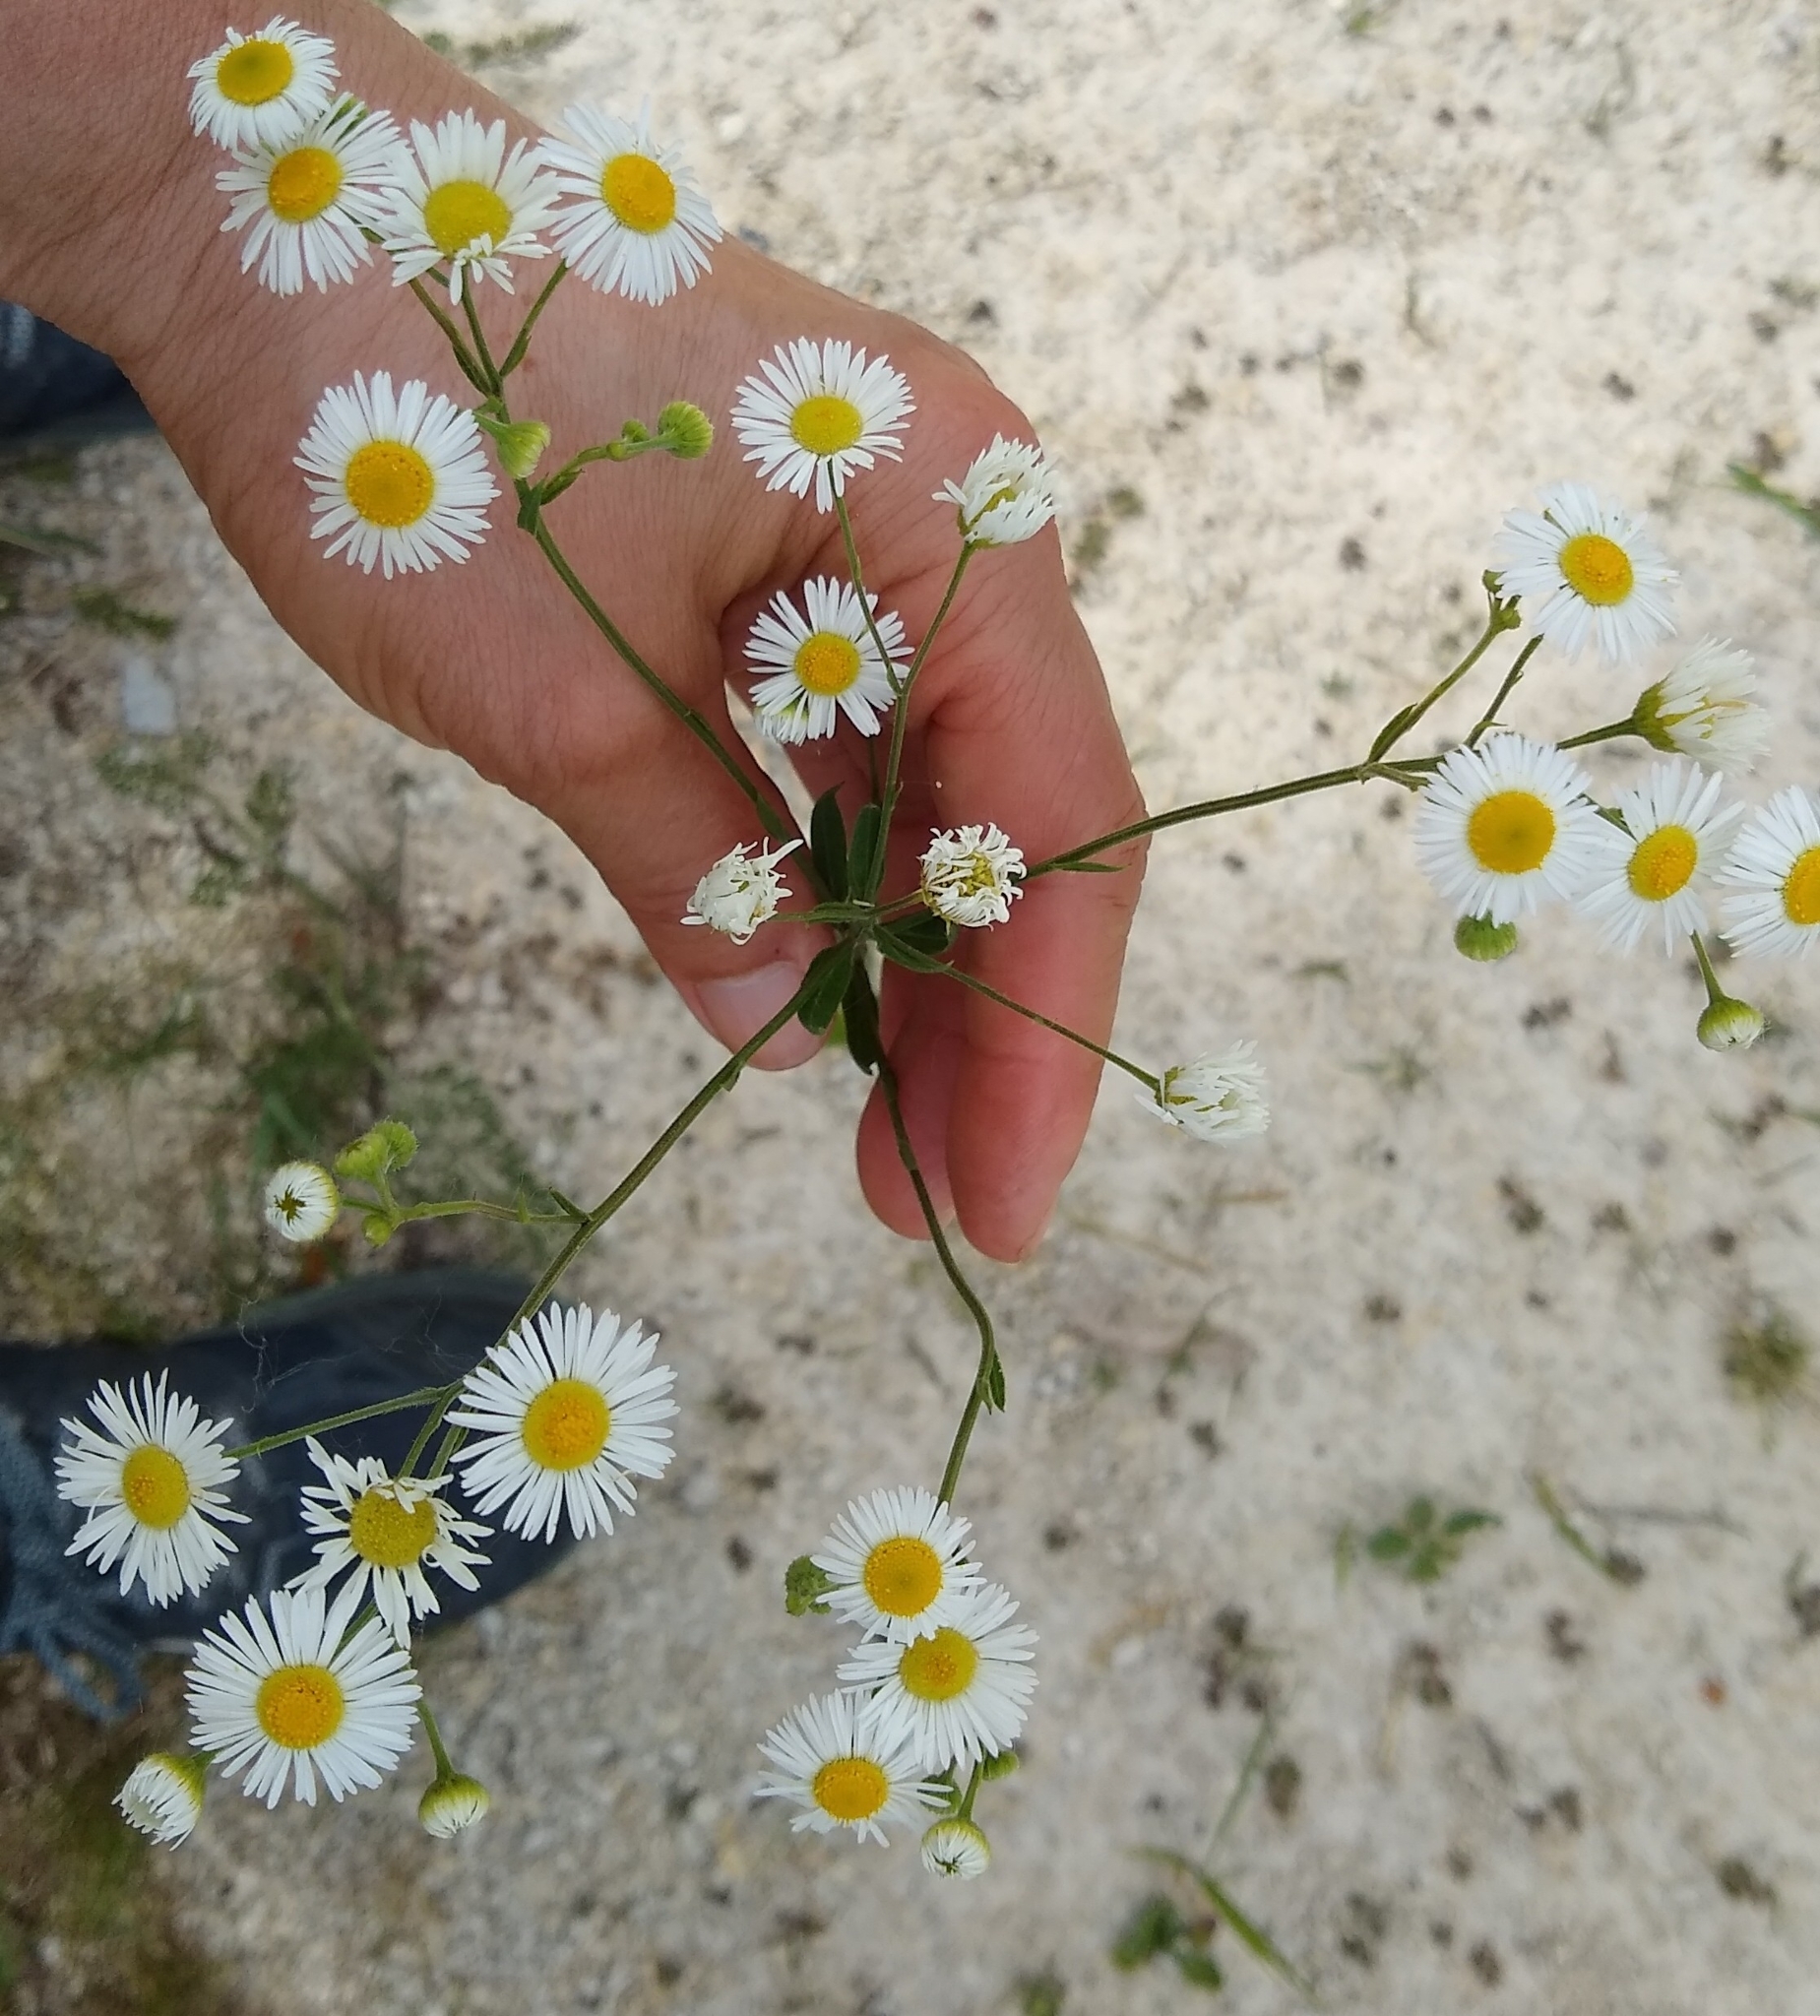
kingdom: Plantae
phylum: Tracheophyta
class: Magnoliopsida
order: Asterales
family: Asteraceae
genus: Erigeron
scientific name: Erigeron strigosus
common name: Common eastern fleabane
